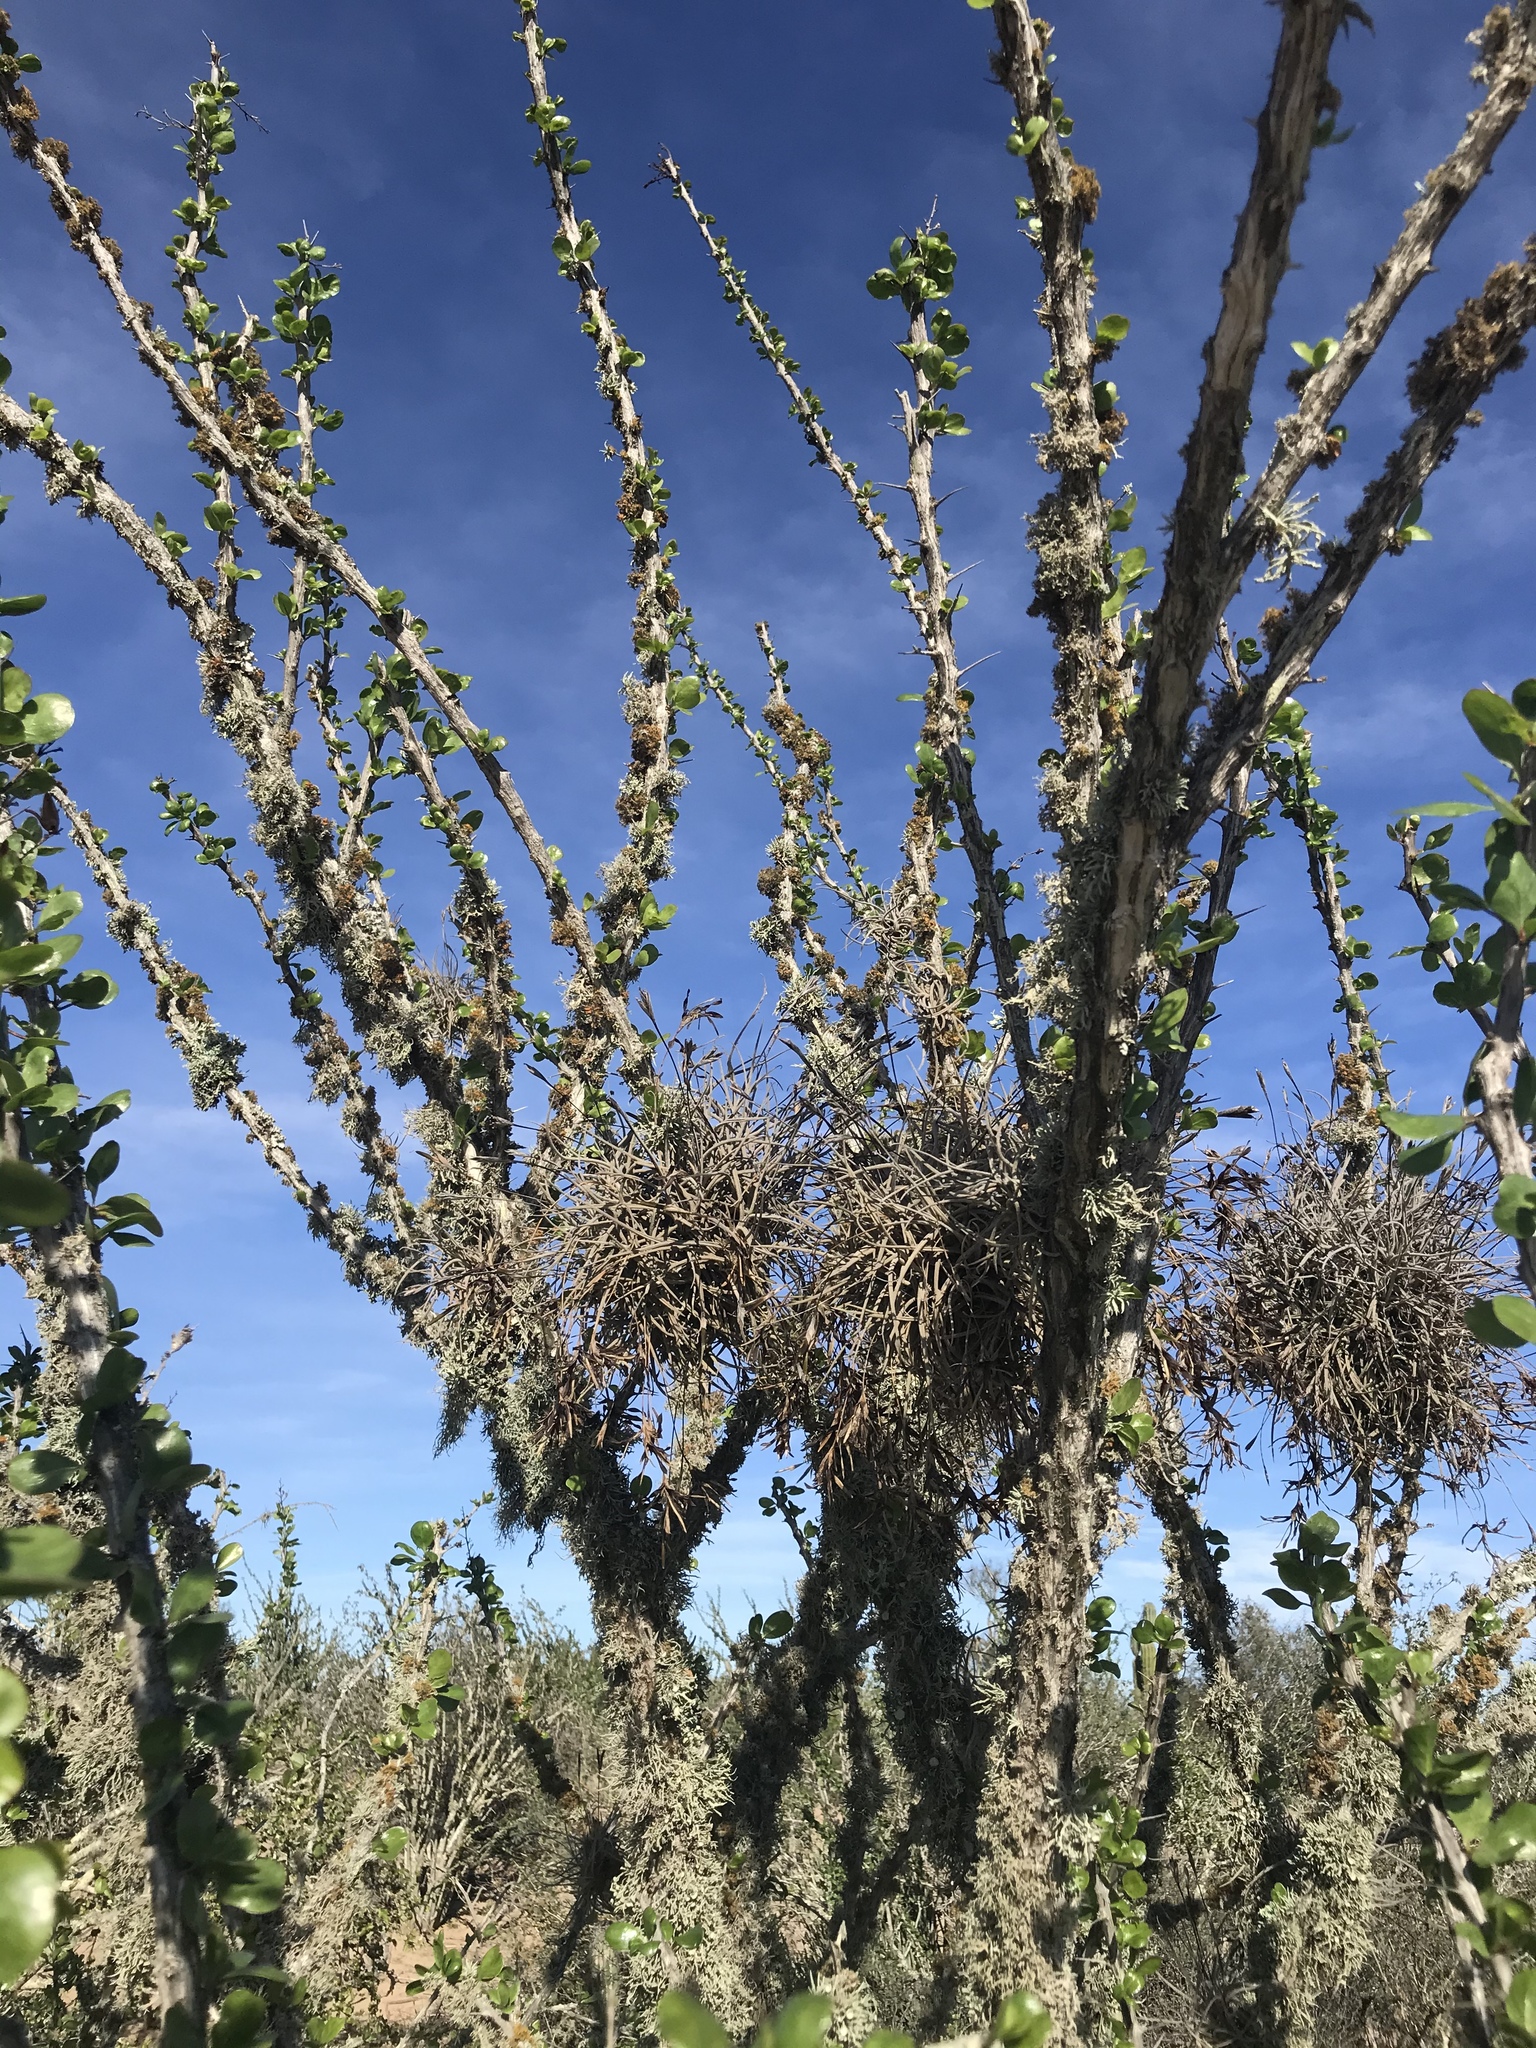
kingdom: Plantae
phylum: Tracheophyta
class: Liliopsida
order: Poales
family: Bromeliaceae
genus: Tillandsia
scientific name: Tillandsia recurvata
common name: Small ballmoss
